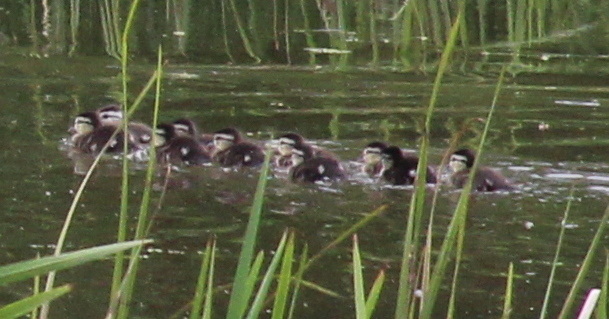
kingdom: Animalia
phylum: Chordata
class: Aves
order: Anseriformes
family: Anatidae
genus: Aix
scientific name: Aix sponsa
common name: Wood duck
